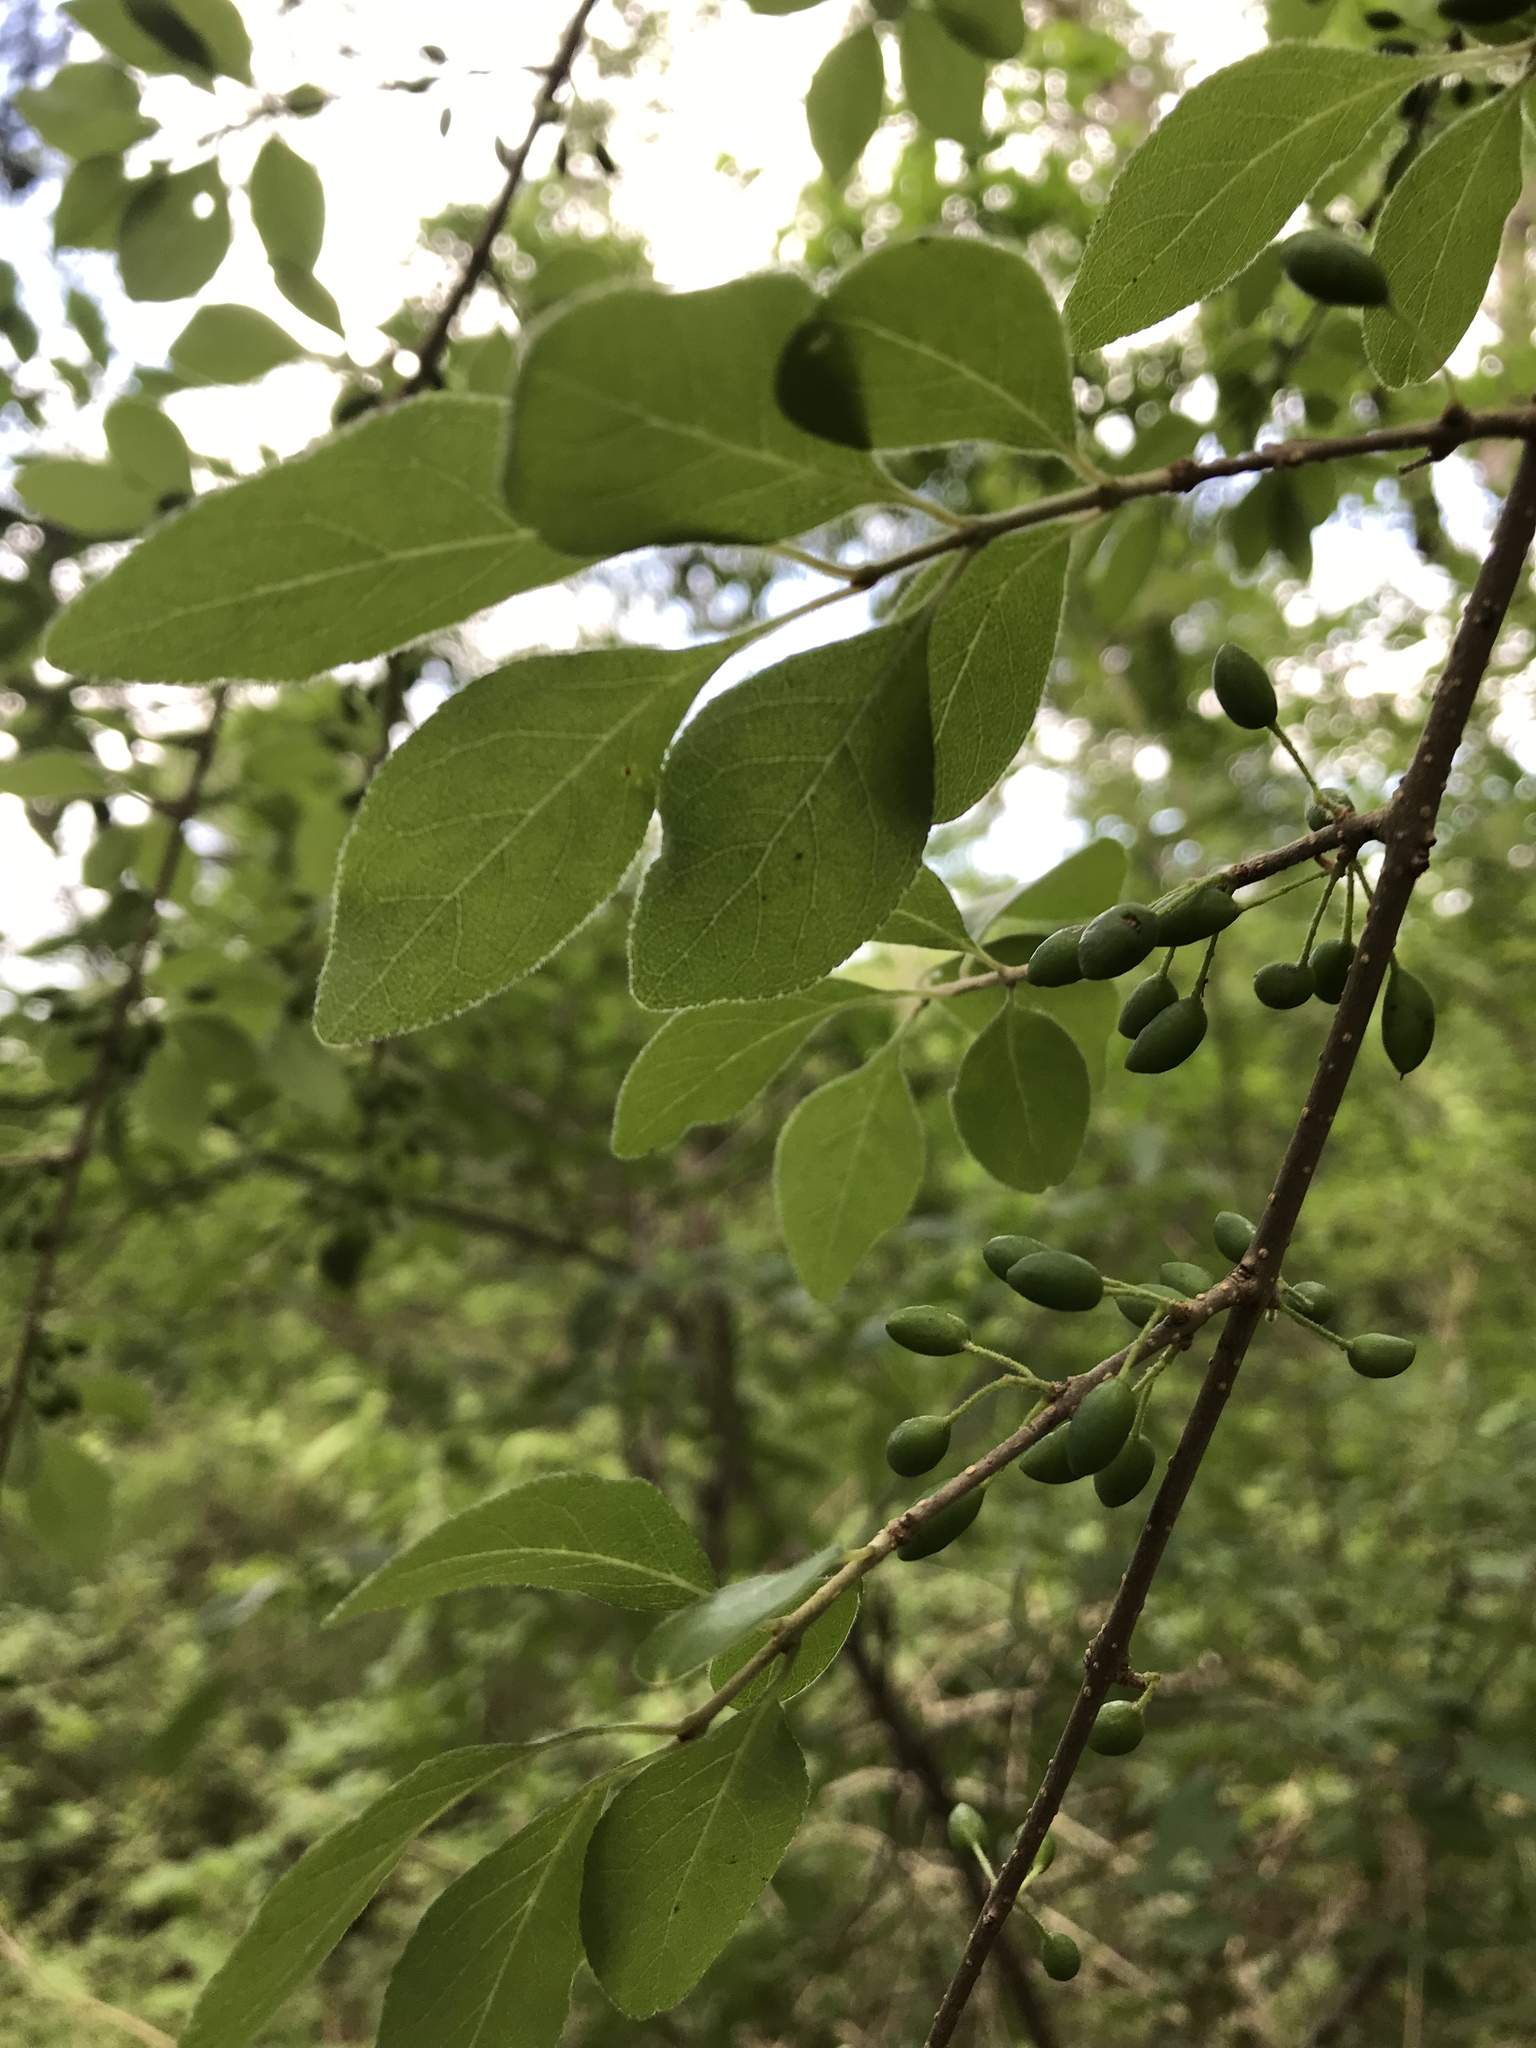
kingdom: Plantae
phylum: Tracheophyta
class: Magnoliopsida
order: Lamiales
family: Oleaceae
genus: Forestiera
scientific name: Forestiera pubescens
